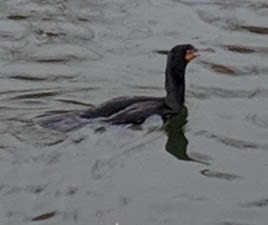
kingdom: Animalia
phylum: Chordata
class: Aves
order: Suliformes
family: Phalacrocoracidae
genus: Phalacrocorax
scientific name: Phalacrocorax auritus
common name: Double-crested cormorant
